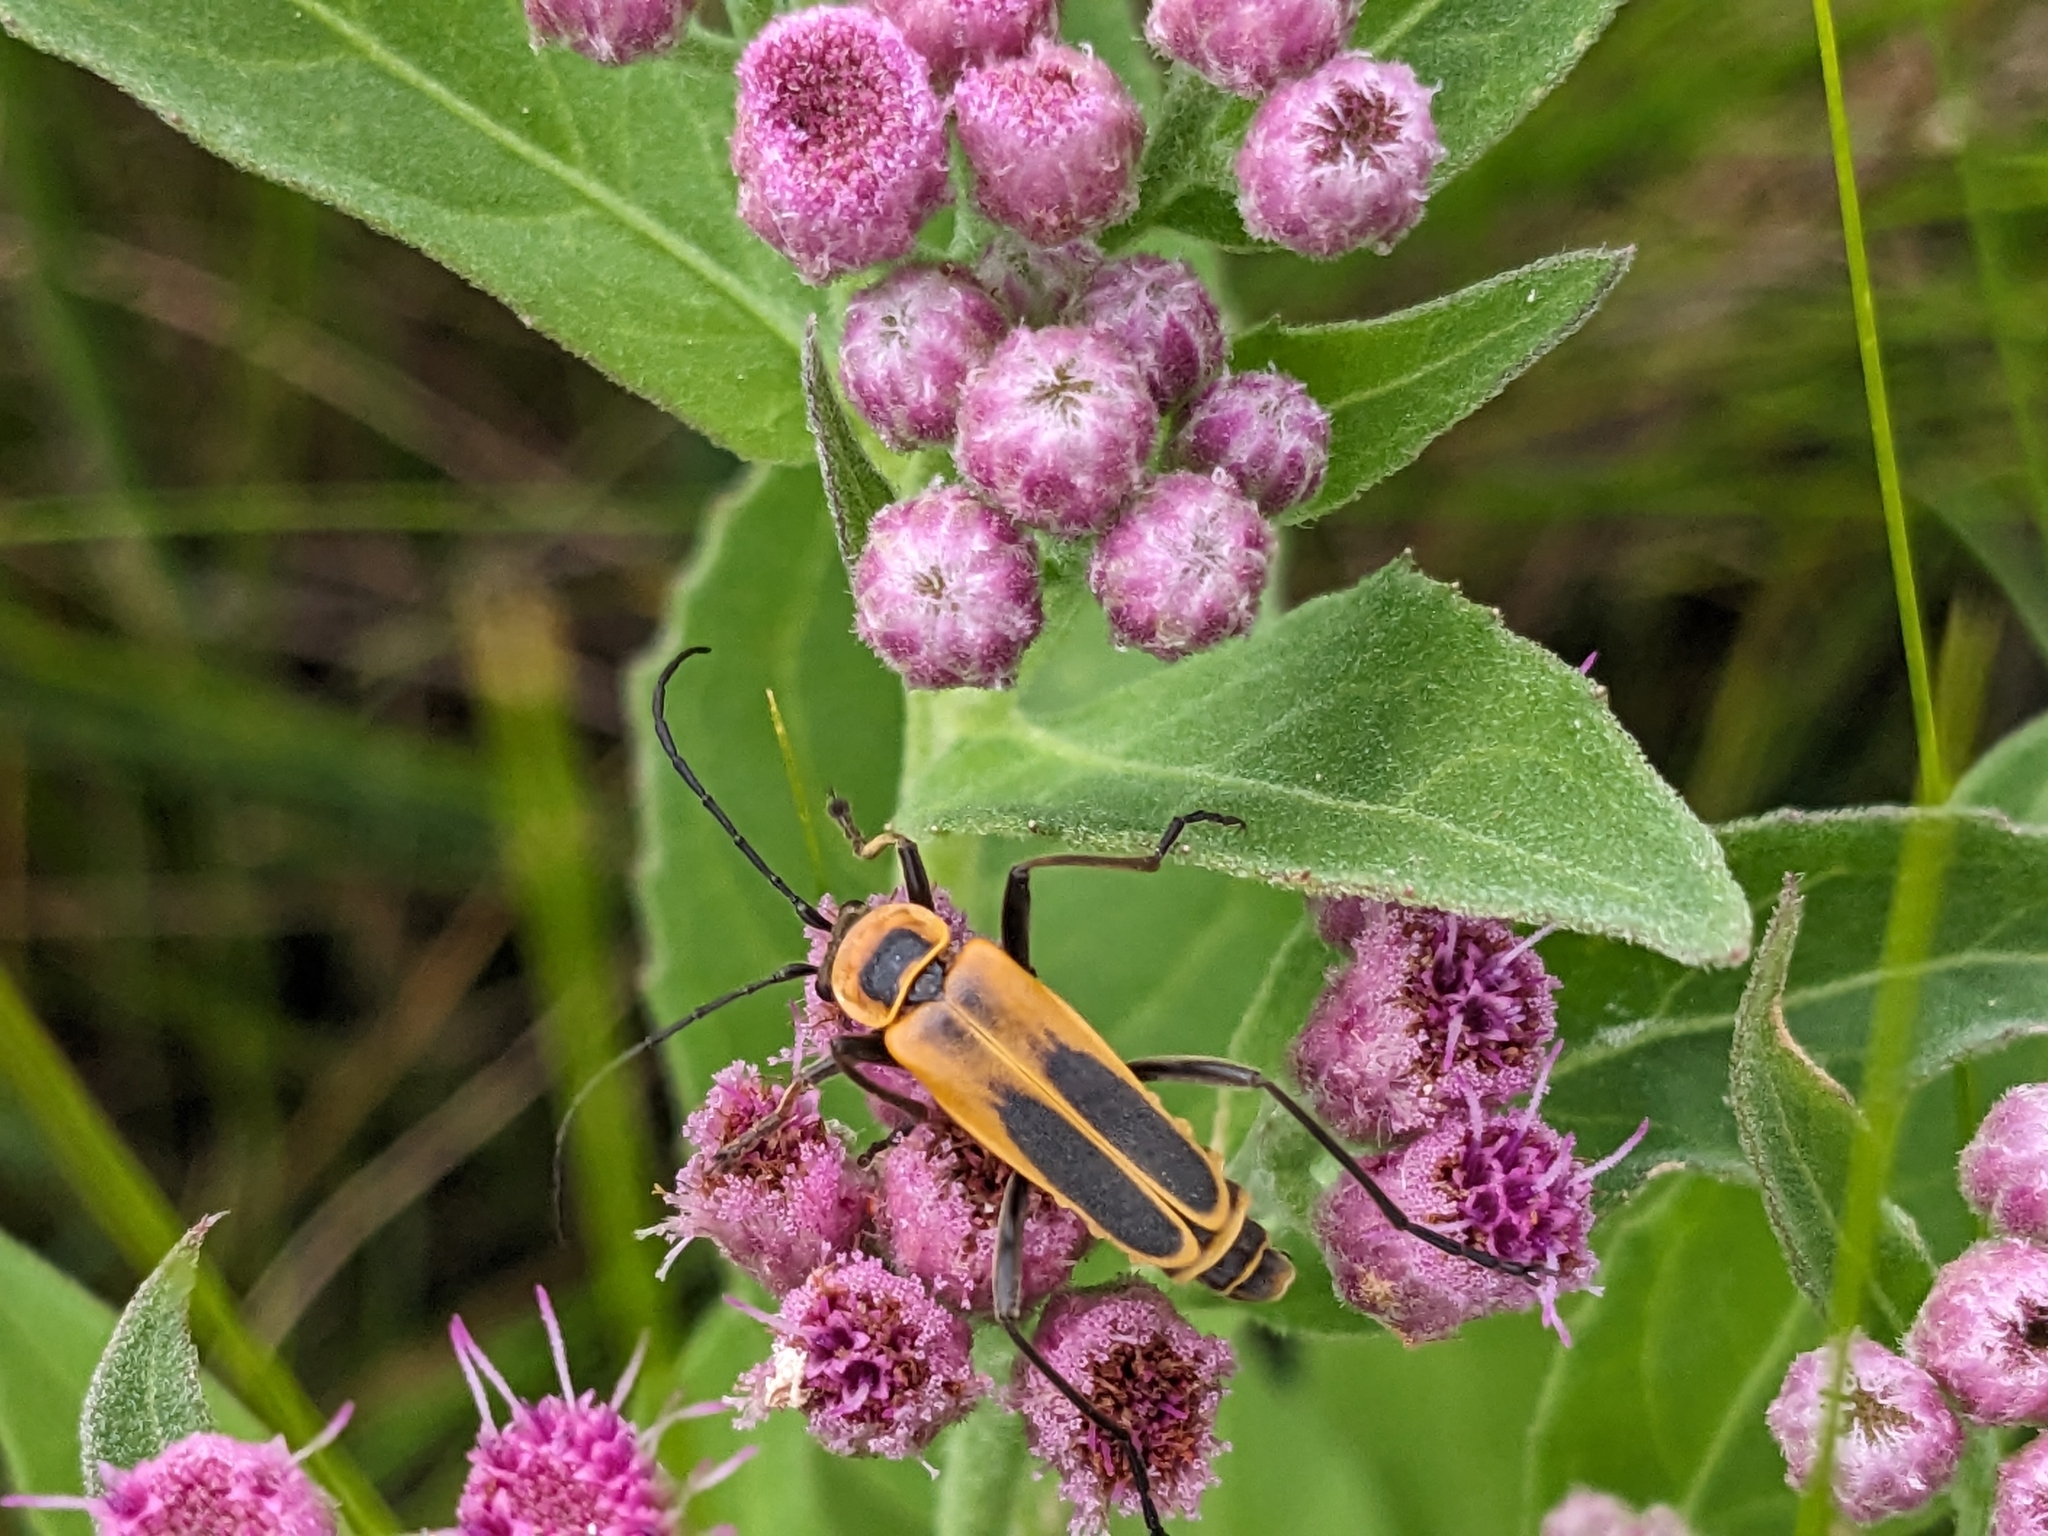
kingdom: Animalia
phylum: Arthropoda
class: Insecta
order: Coleoptera
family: Cantharidae
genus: Chauliognathus
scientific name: Chauliognathus pensylvanicus
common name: Goldenrod soldier beetle
